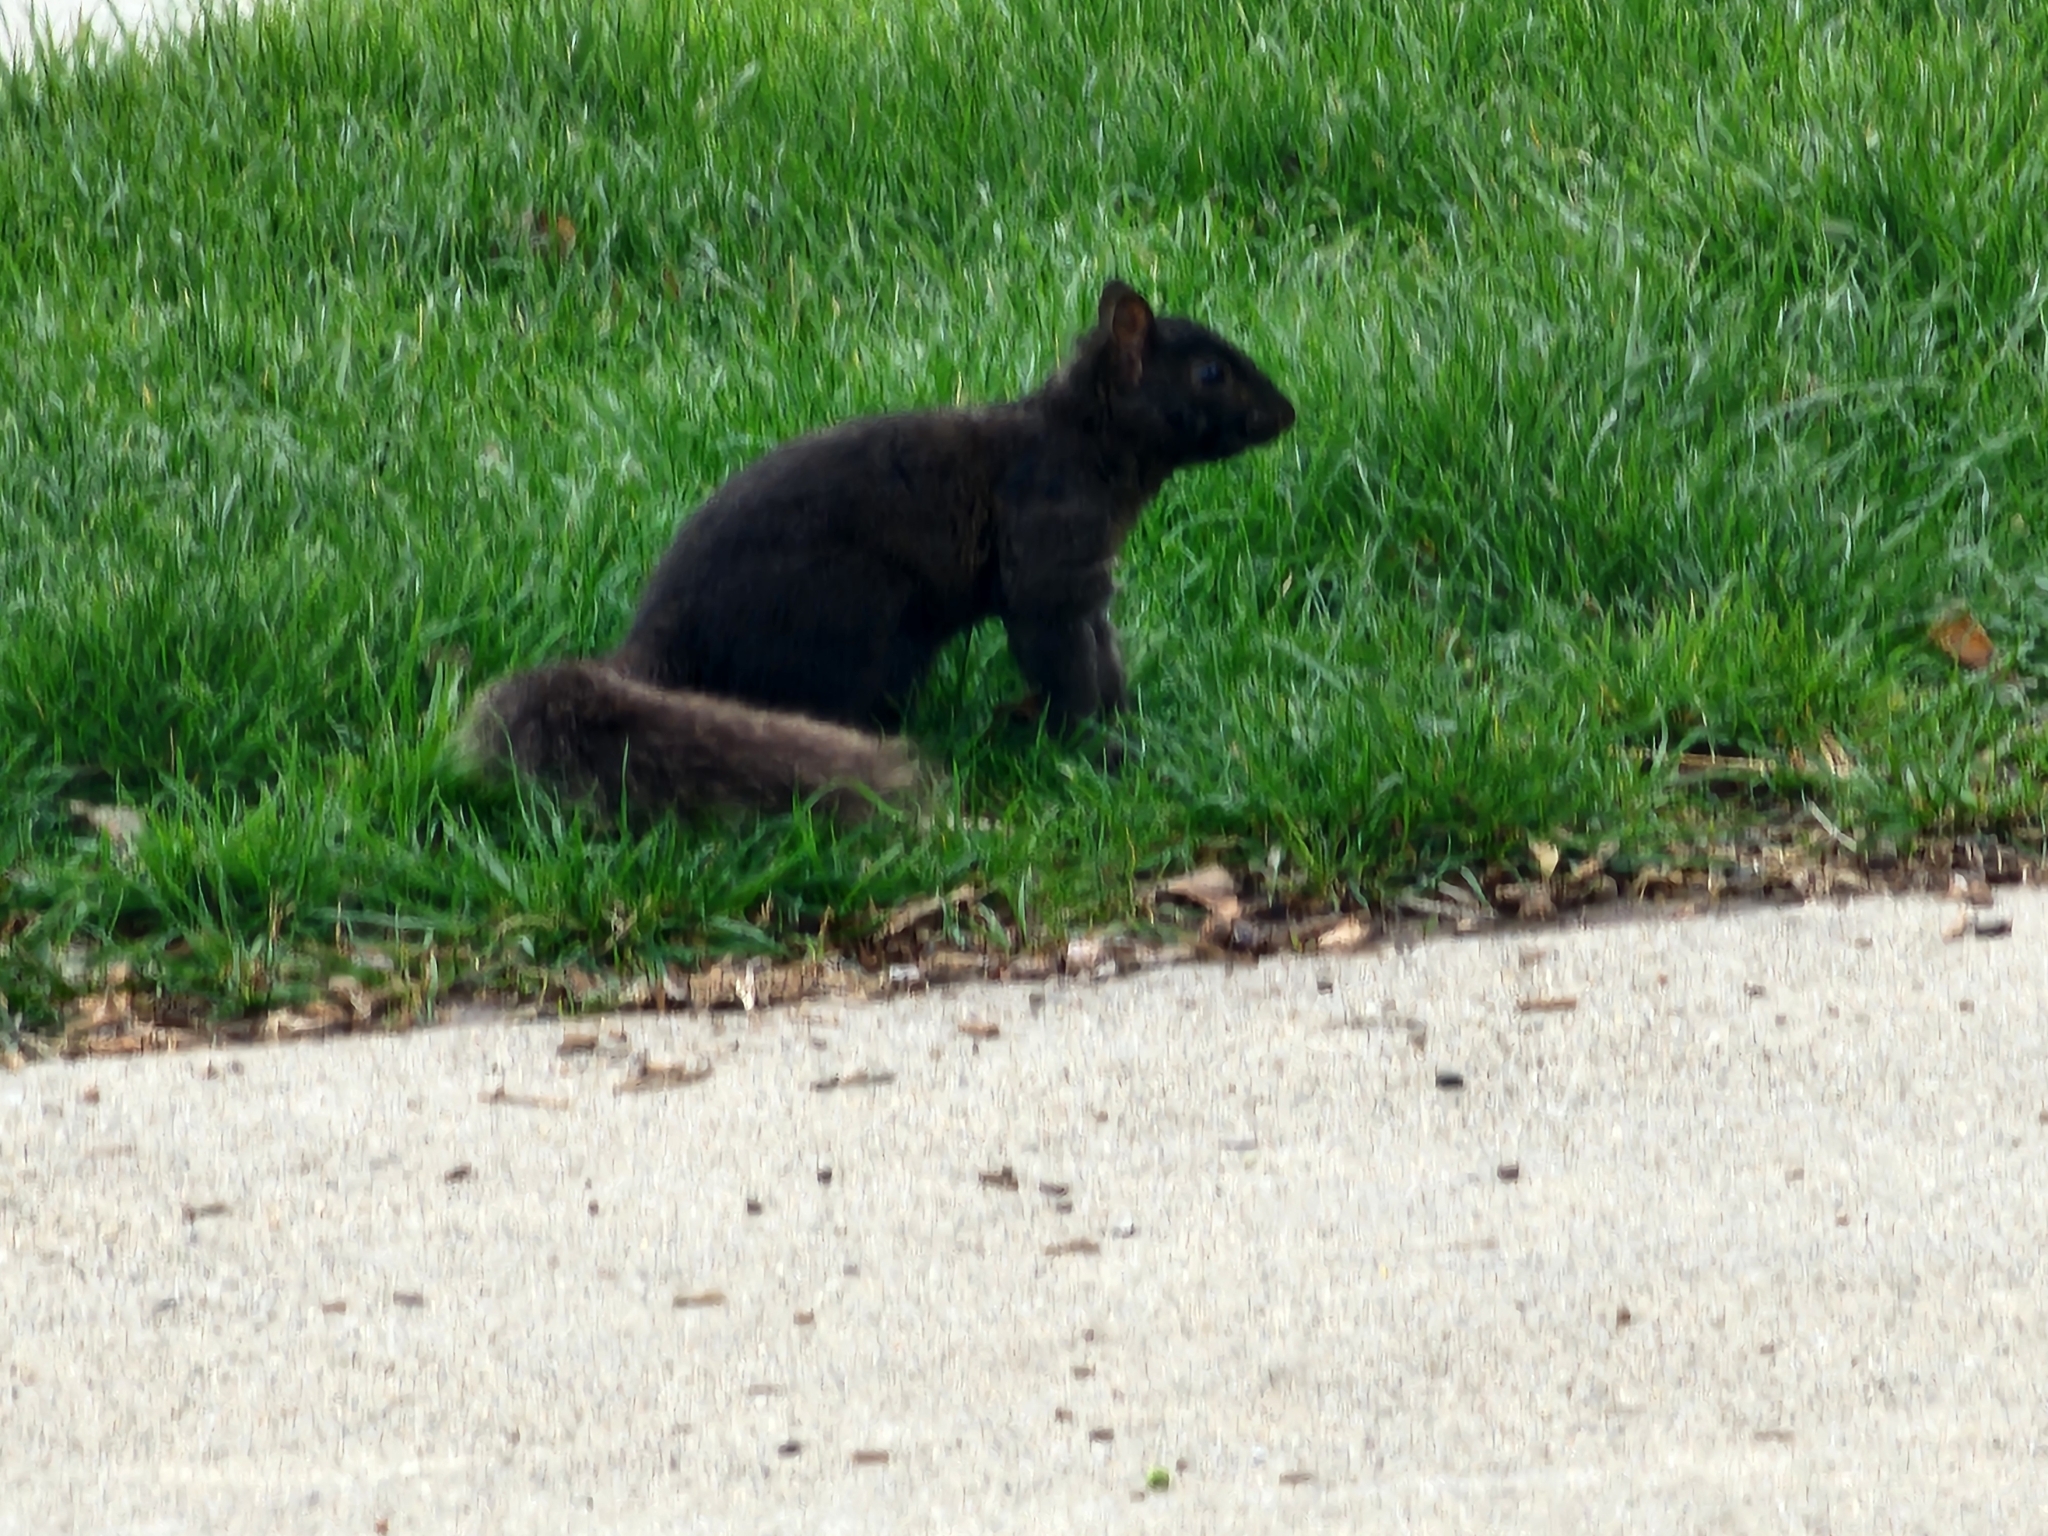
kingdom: Animalia
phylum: Chordata
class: Mammalia
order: Rodentia
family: Sciuridae
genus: Sciurus
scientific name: Sciurus carolinensis
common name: Eastern gray squirrel
